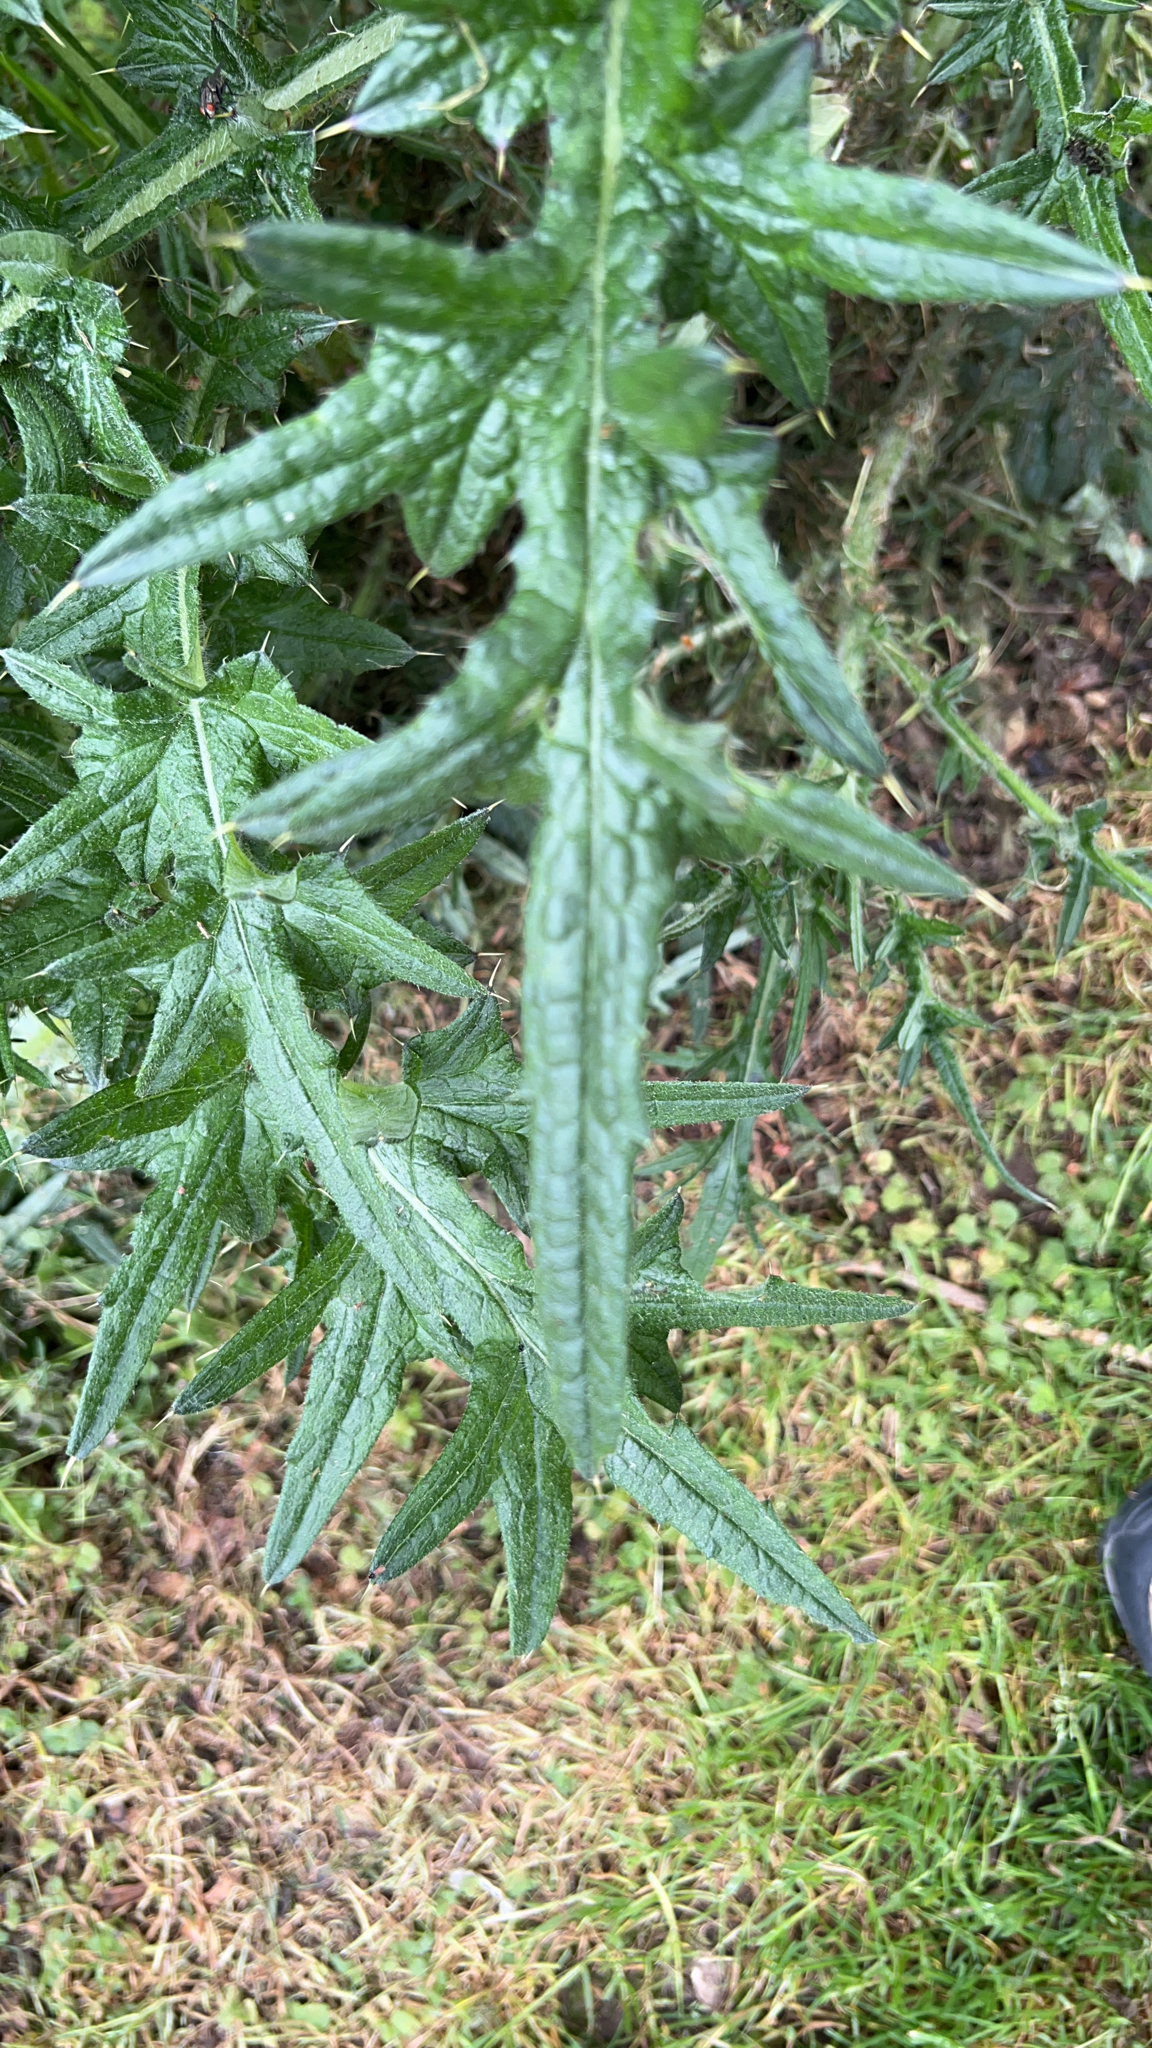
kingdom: Plantae
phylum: Tracheophyta
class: Magnoliopsida
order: Asterales
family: Asteraceae
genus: Cirsium
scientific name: Cirsium vulgare
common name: Bull thistle
